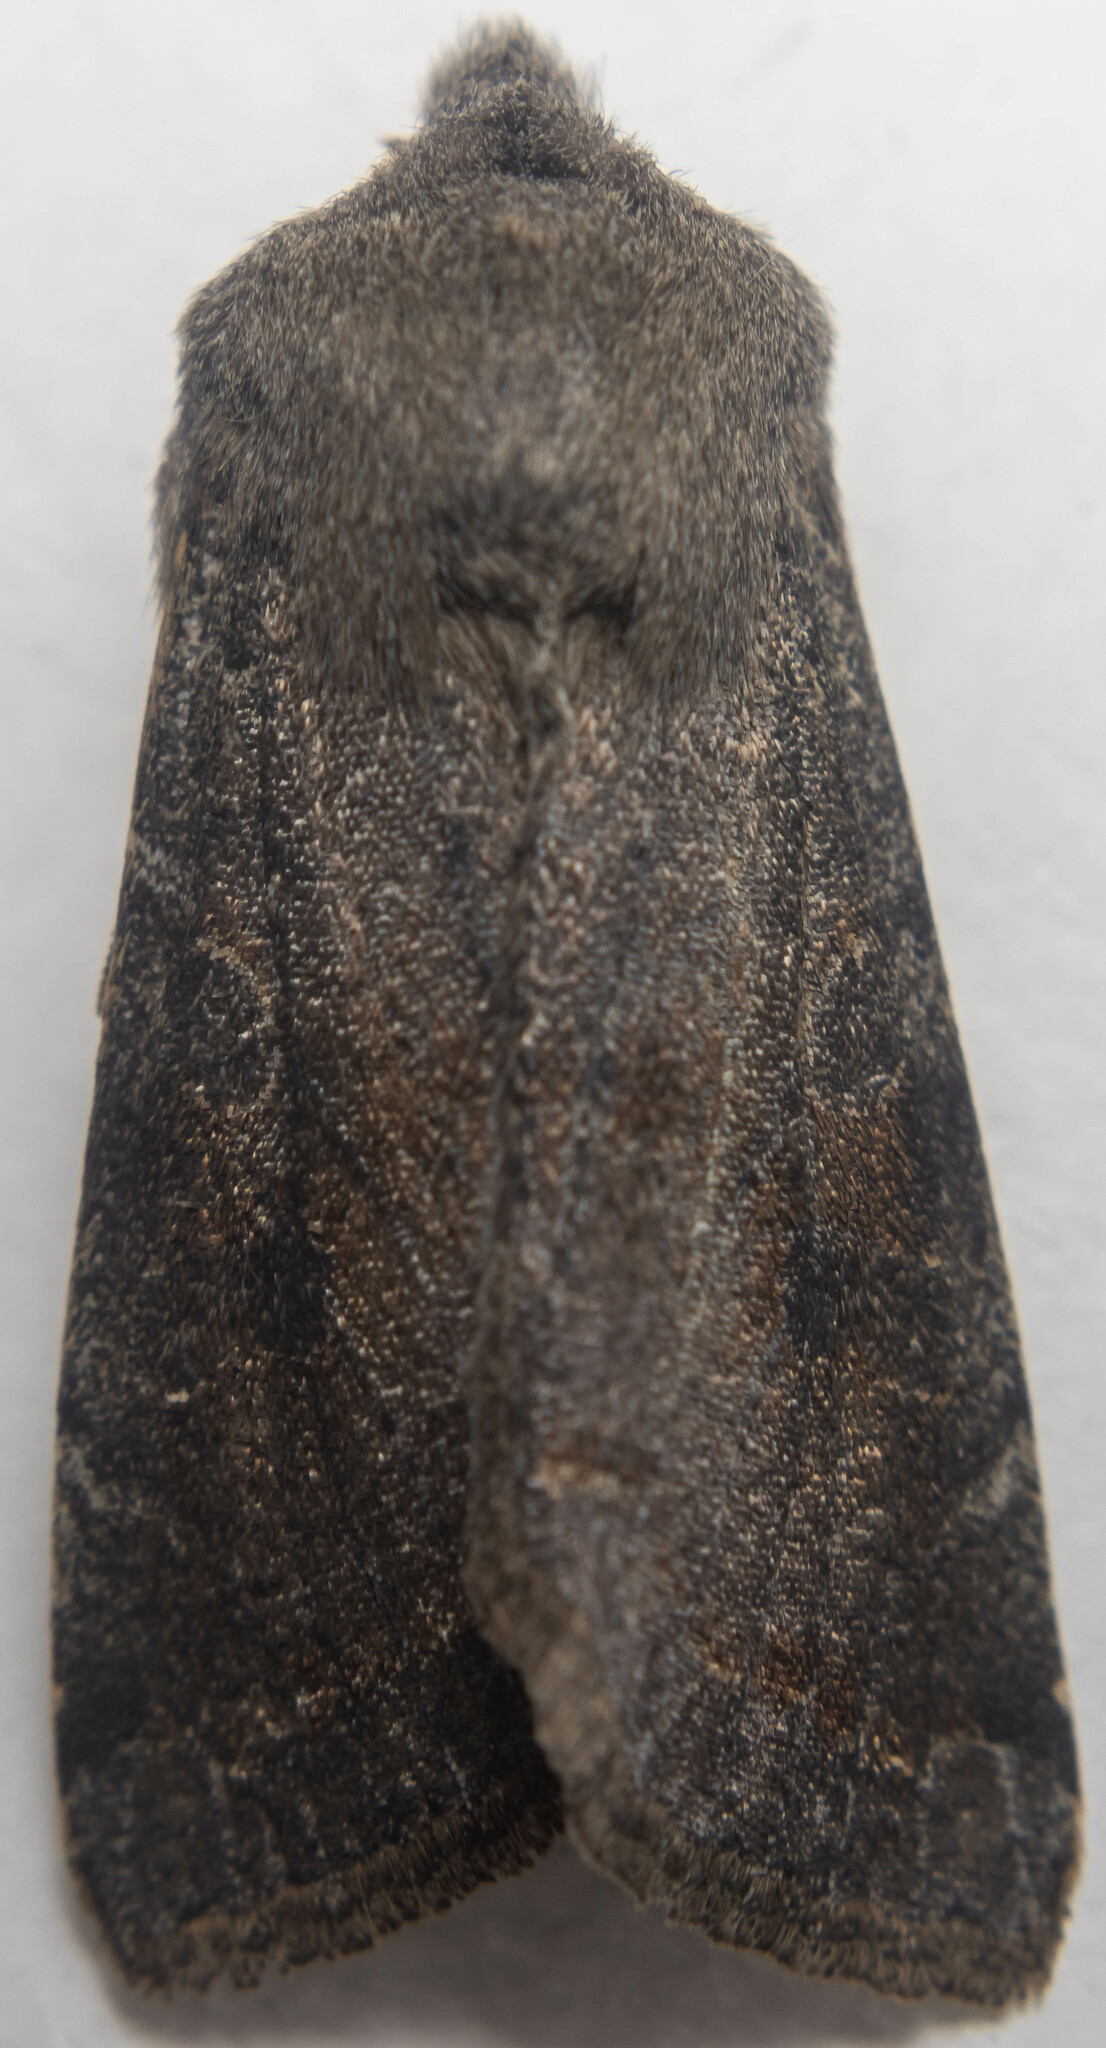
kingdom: Animalia
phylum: Arthropoda
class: Insecta
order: Lepidoptera
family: Noctuidae
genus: Orthosia
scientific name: Orthosia incerta
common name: Clouded drab
